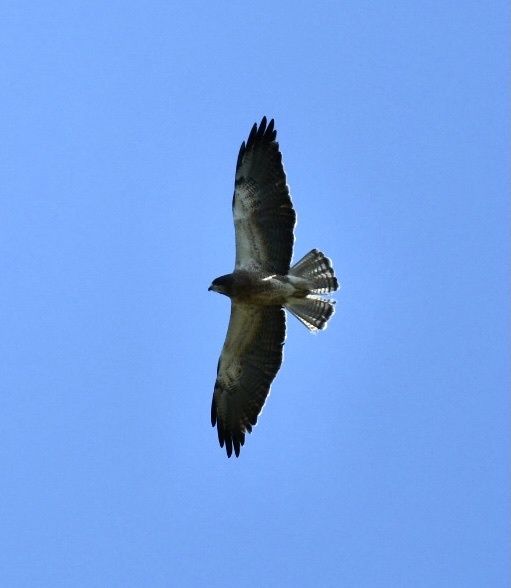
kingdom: Animalia
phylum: Chordata
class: Aves
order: Accipitriformes
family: Accipitridae
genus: Buteo
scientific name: Buteo swainsoni
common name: Swainson's hawk
